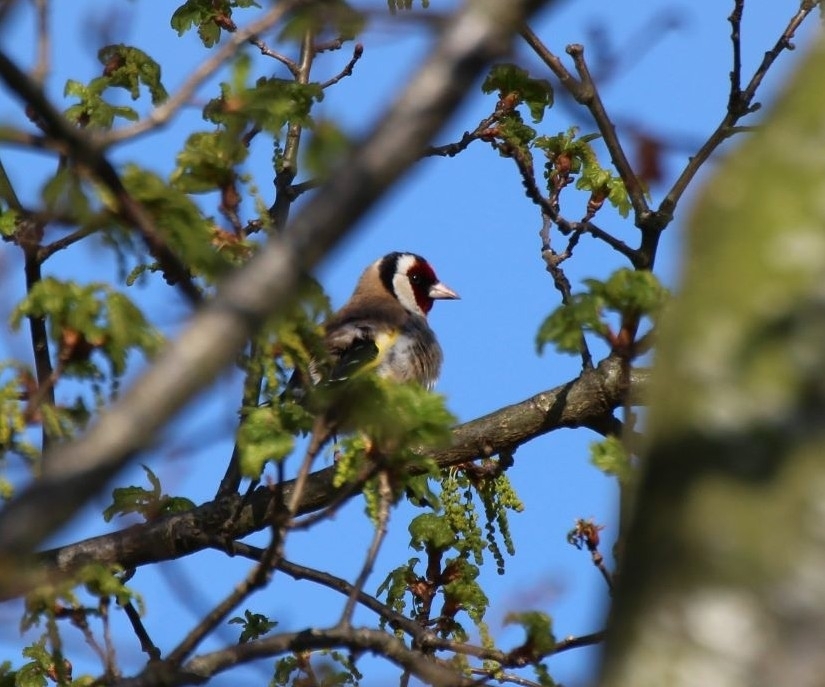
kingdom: Animalia
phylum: Chordata
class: Aves
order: Passeriformes
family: Fringillidae
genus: Carduelis
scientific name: Carduelis carduelis
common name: European goldfinch
